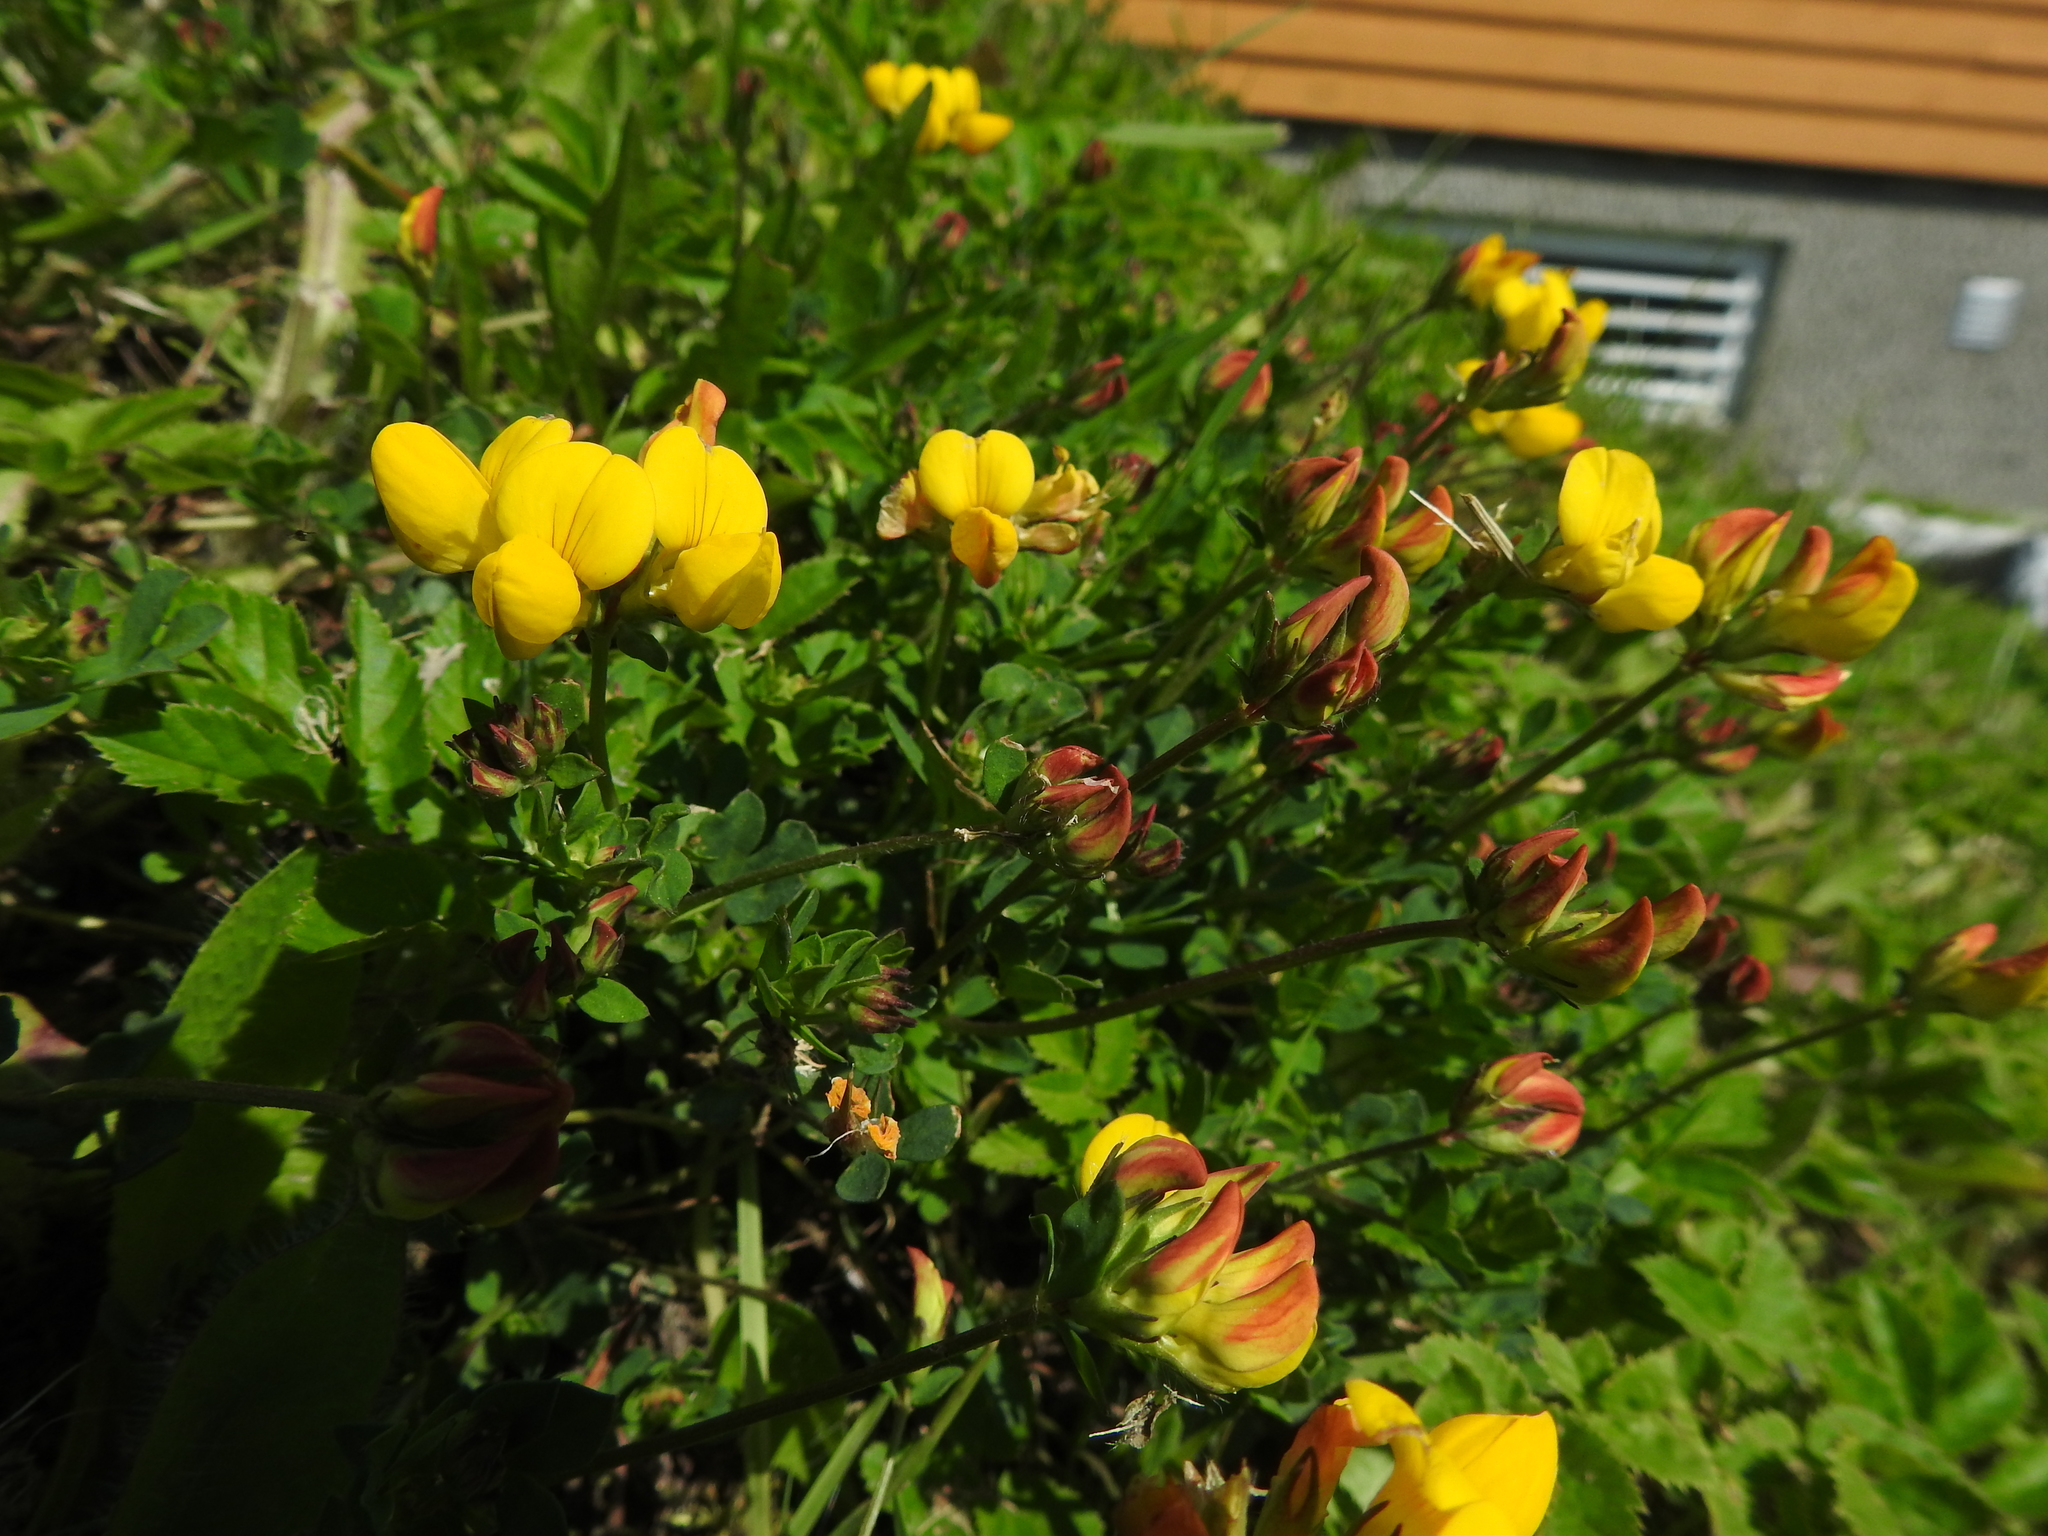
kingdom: Plantae
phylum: Tracheophyta
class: Magnoliopsida
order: Fabales
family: Fabaceae
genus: Lotus
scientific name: Lotus corniculatus
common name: Common bird's-foot-trefoil
